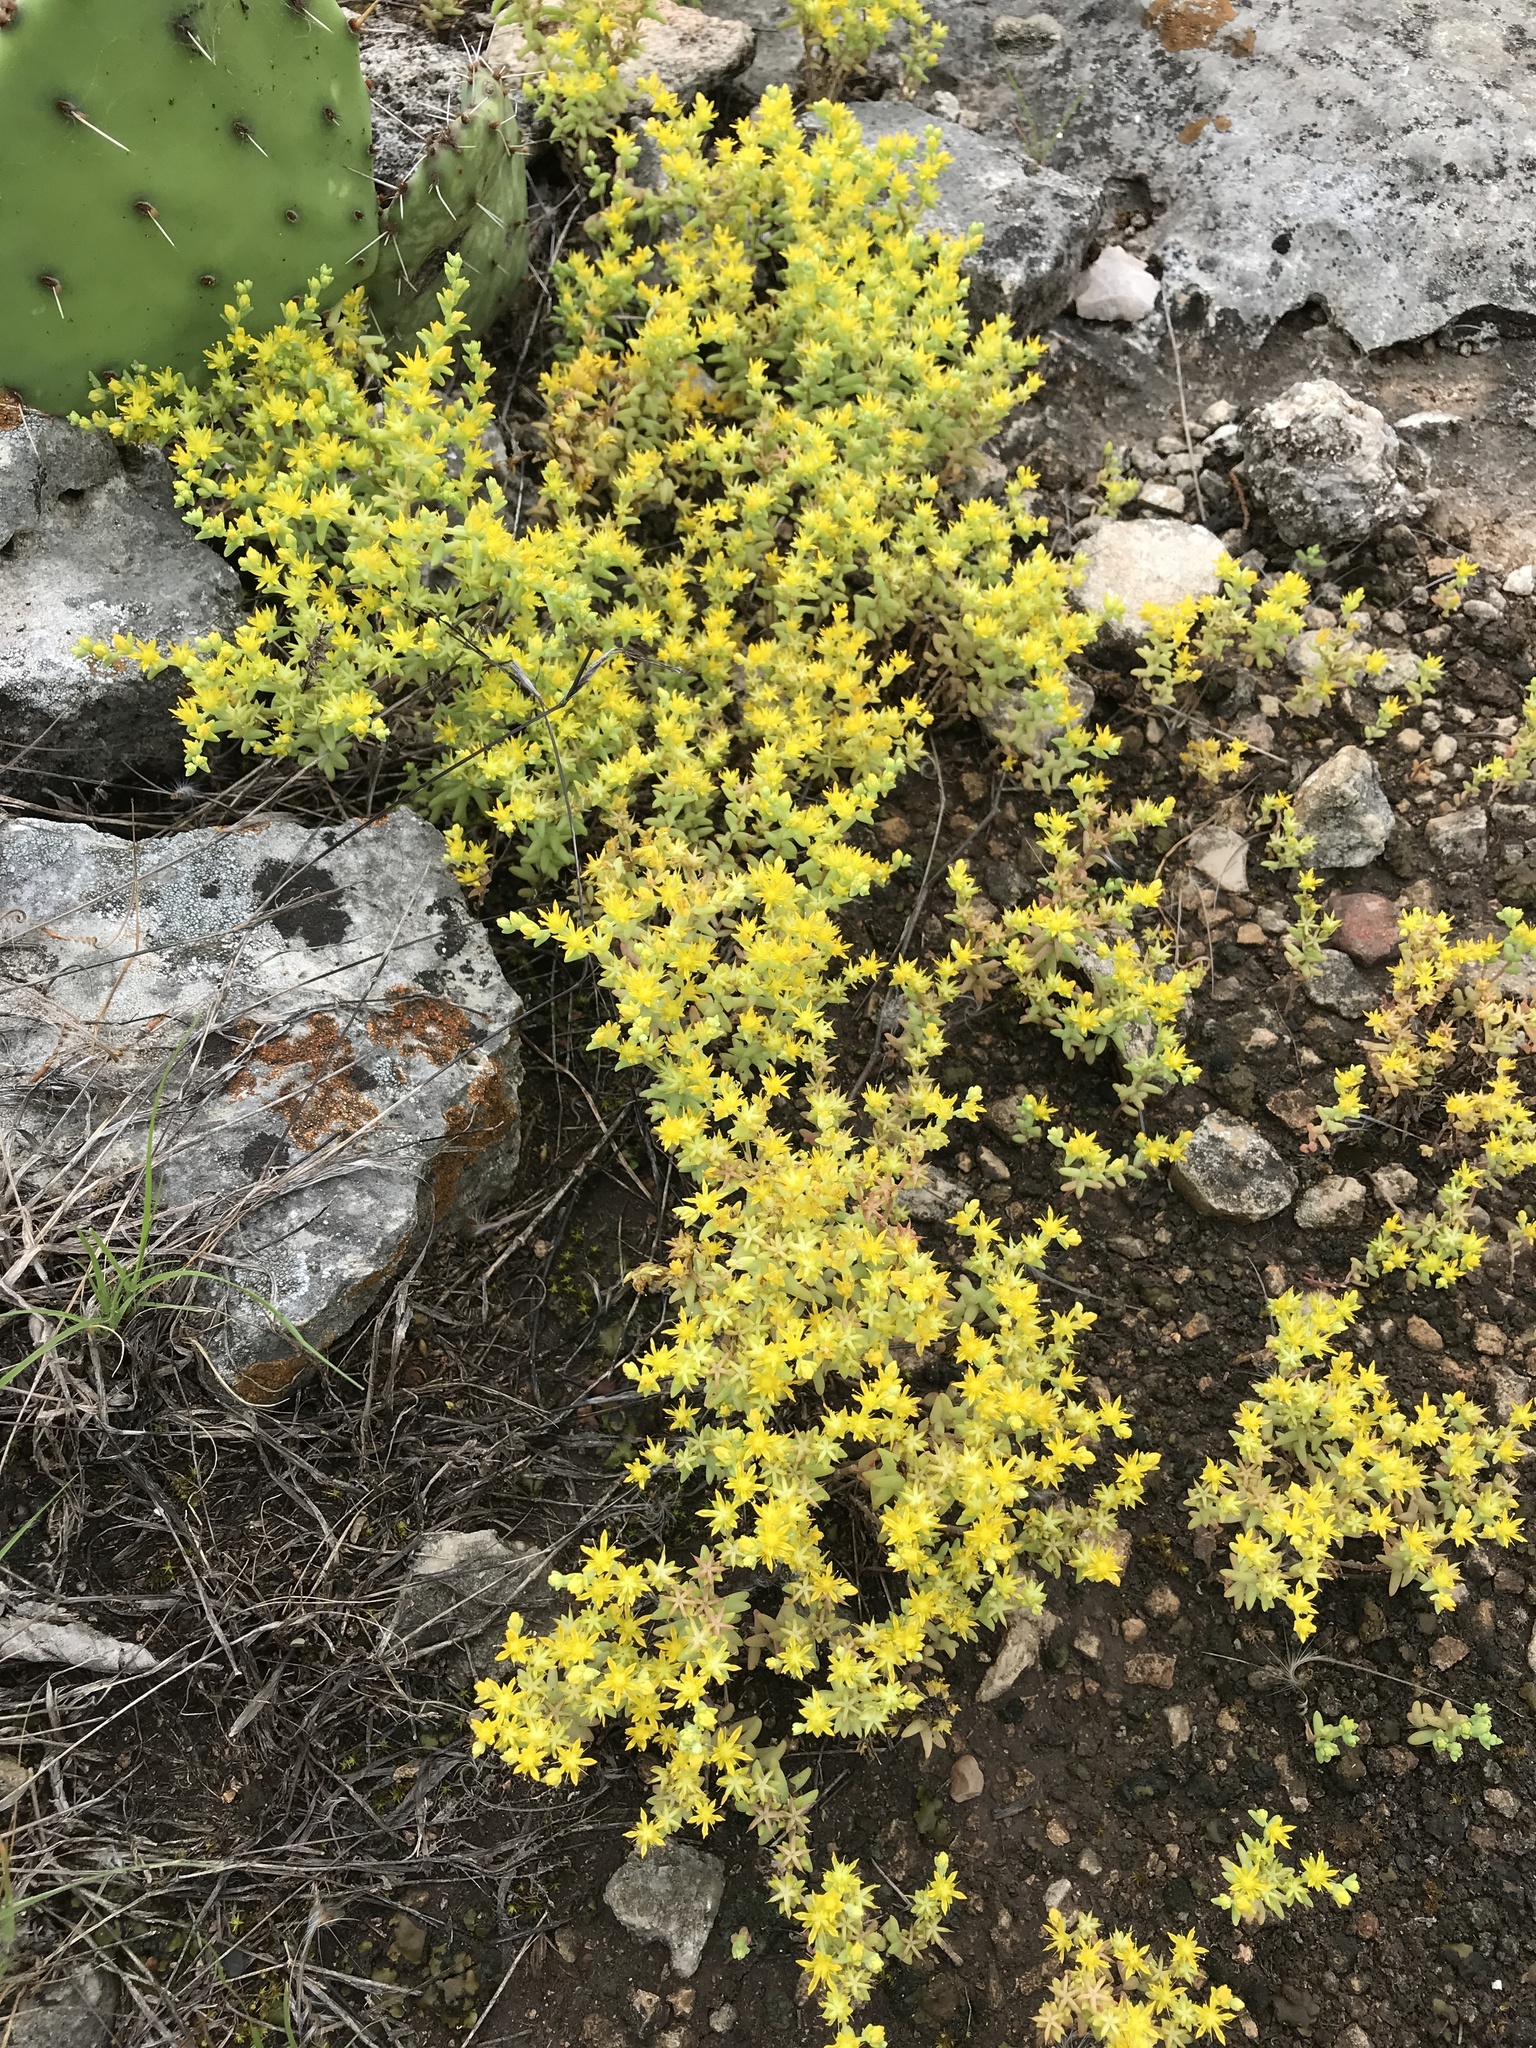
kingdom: Plantae
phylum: Tracheophyta
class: Magnoliopsida
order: Saxifragales
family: Crassulaceae
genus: Sedum
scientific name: Sedum nuttallii
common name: Yellow stonecrop
